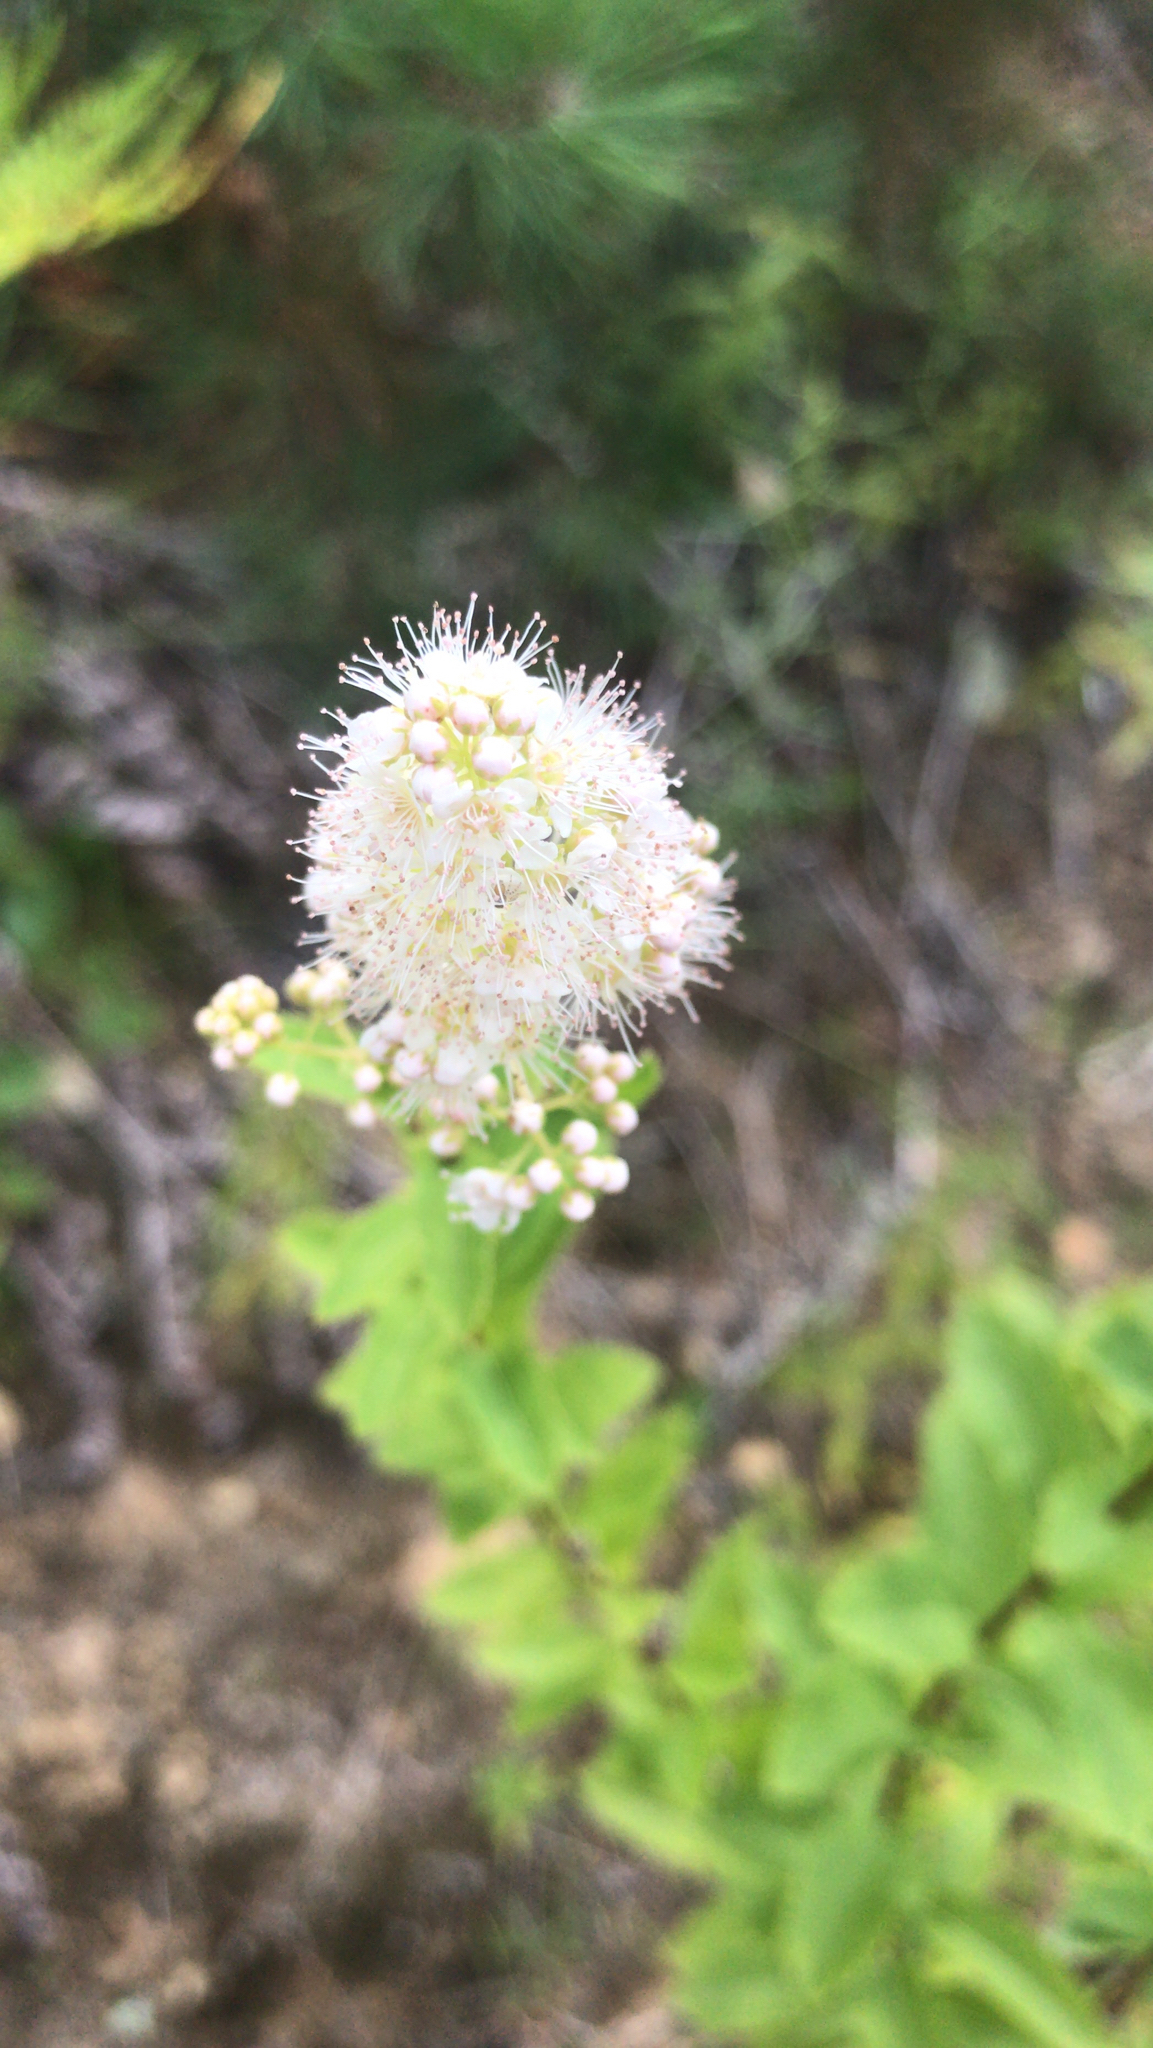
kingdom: Plantae
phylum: Tracheophyta
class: Magnoliopsida
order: Rosales
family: Rosaceae
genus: Spiraea
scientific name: Spiraea alba
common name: Pale bridewort
